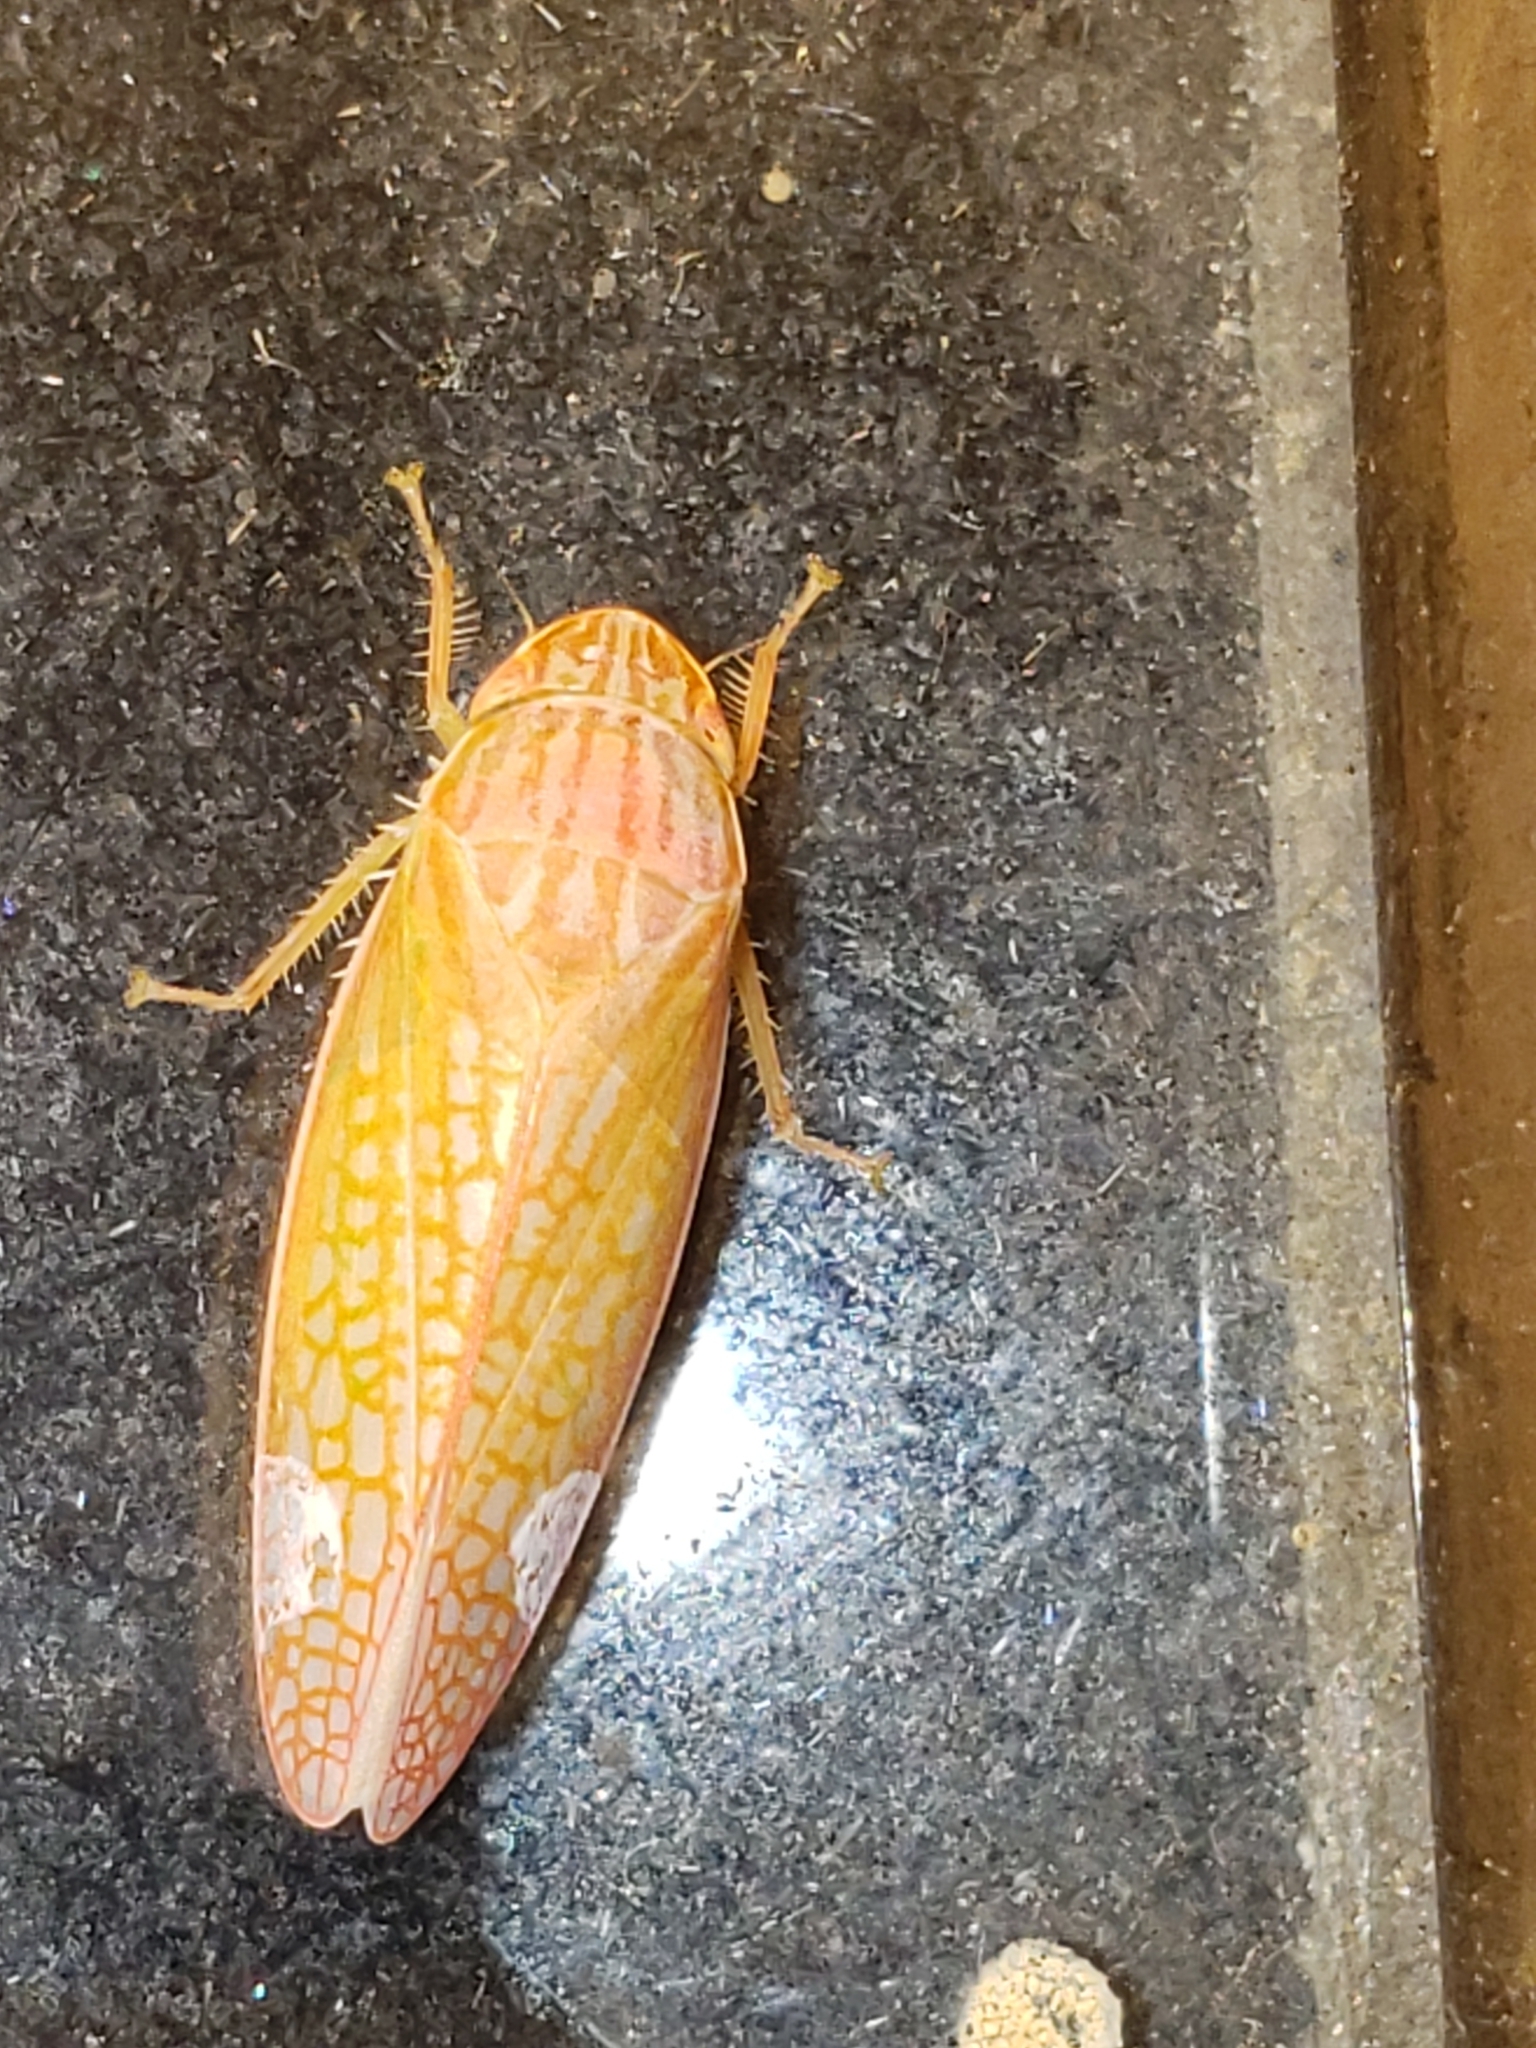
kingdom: Animalia
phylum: Arthropoda
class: Insecta
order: Hemiptera
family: Cicadellidae
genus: Gyponana
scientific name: Gyponana gladia
